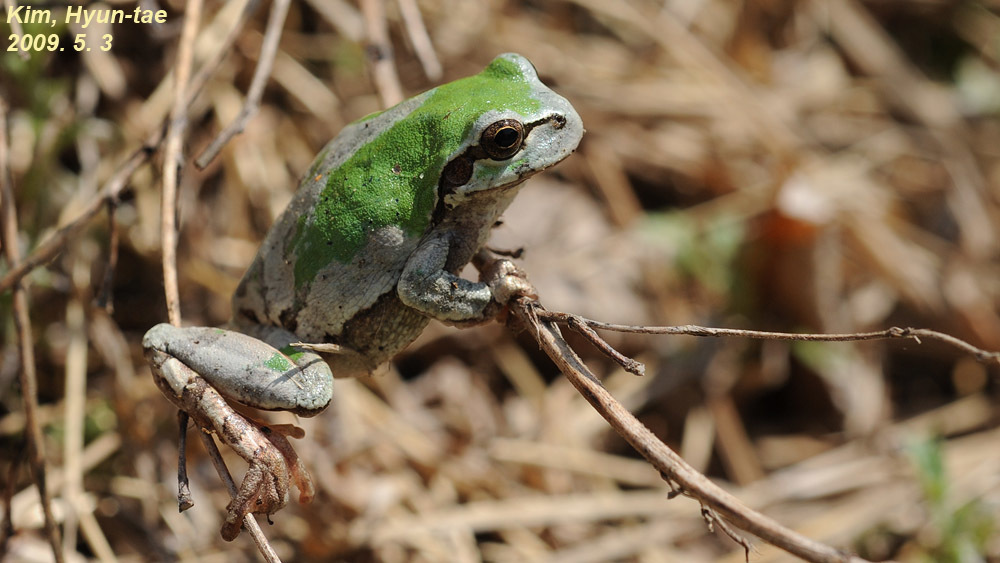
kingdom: Animalia
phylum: Chordata
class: Amphibia
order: Anura
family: Hylidae
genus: Dryophytes
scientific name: Dryophytes japonicus
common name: Japanese treefrog
